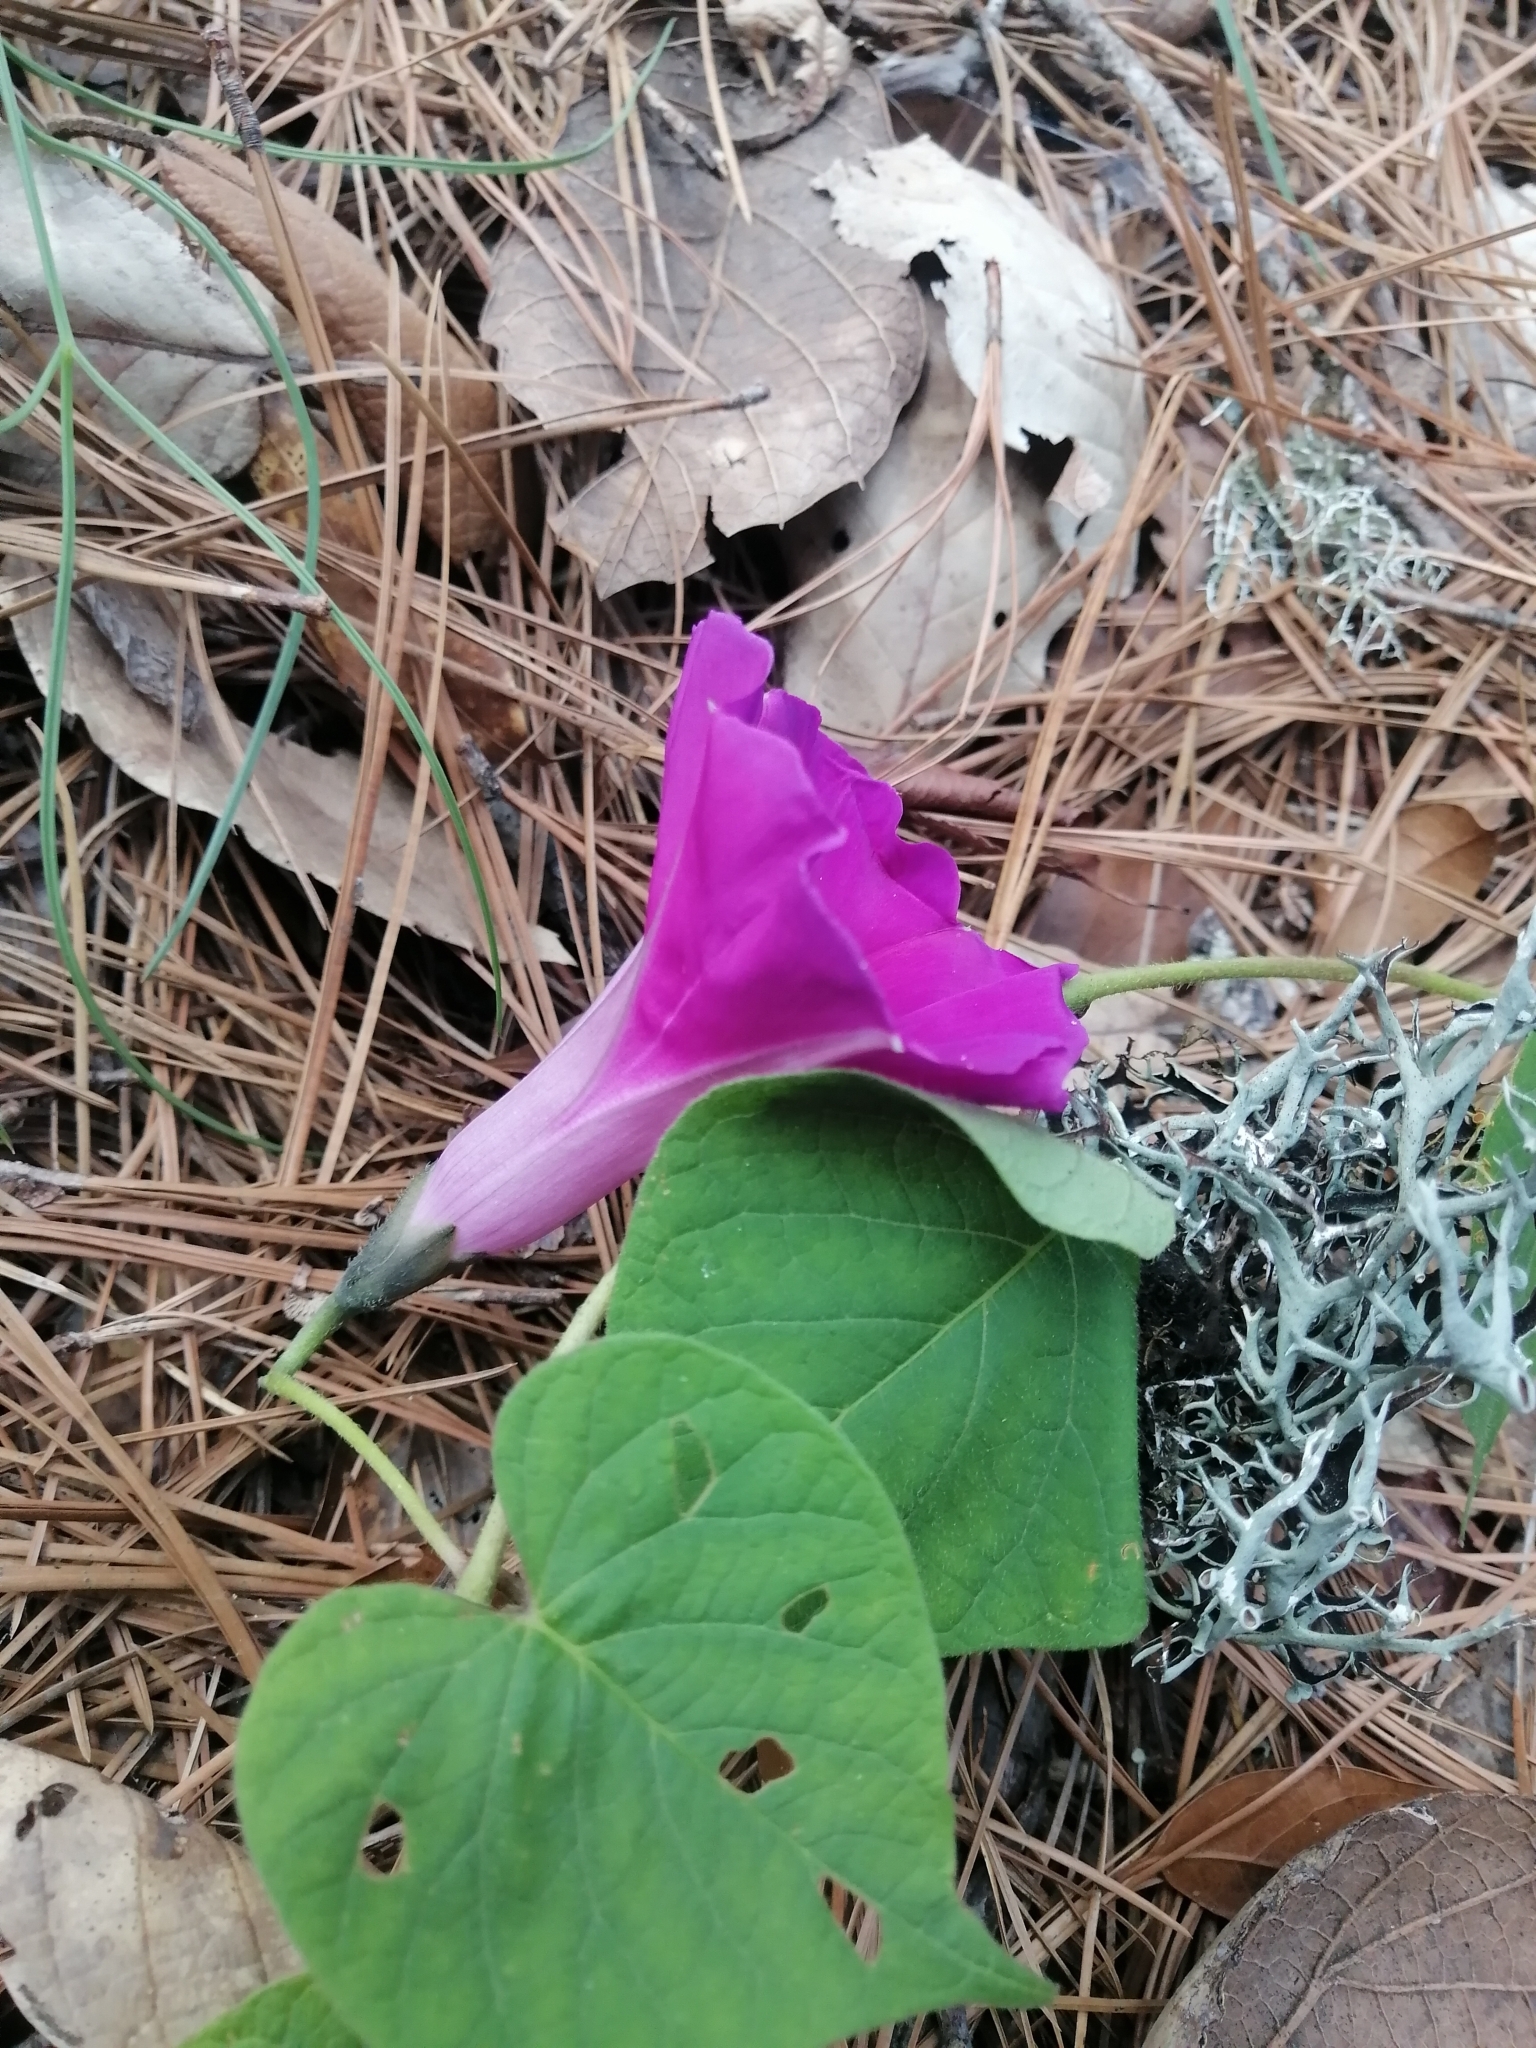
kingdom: Plantae
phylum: Tracheophyta
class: Magnoliopsida
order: Solanales
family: Convolvulaceae
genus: Ipomoea
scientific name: Ipomoea orizabensis
